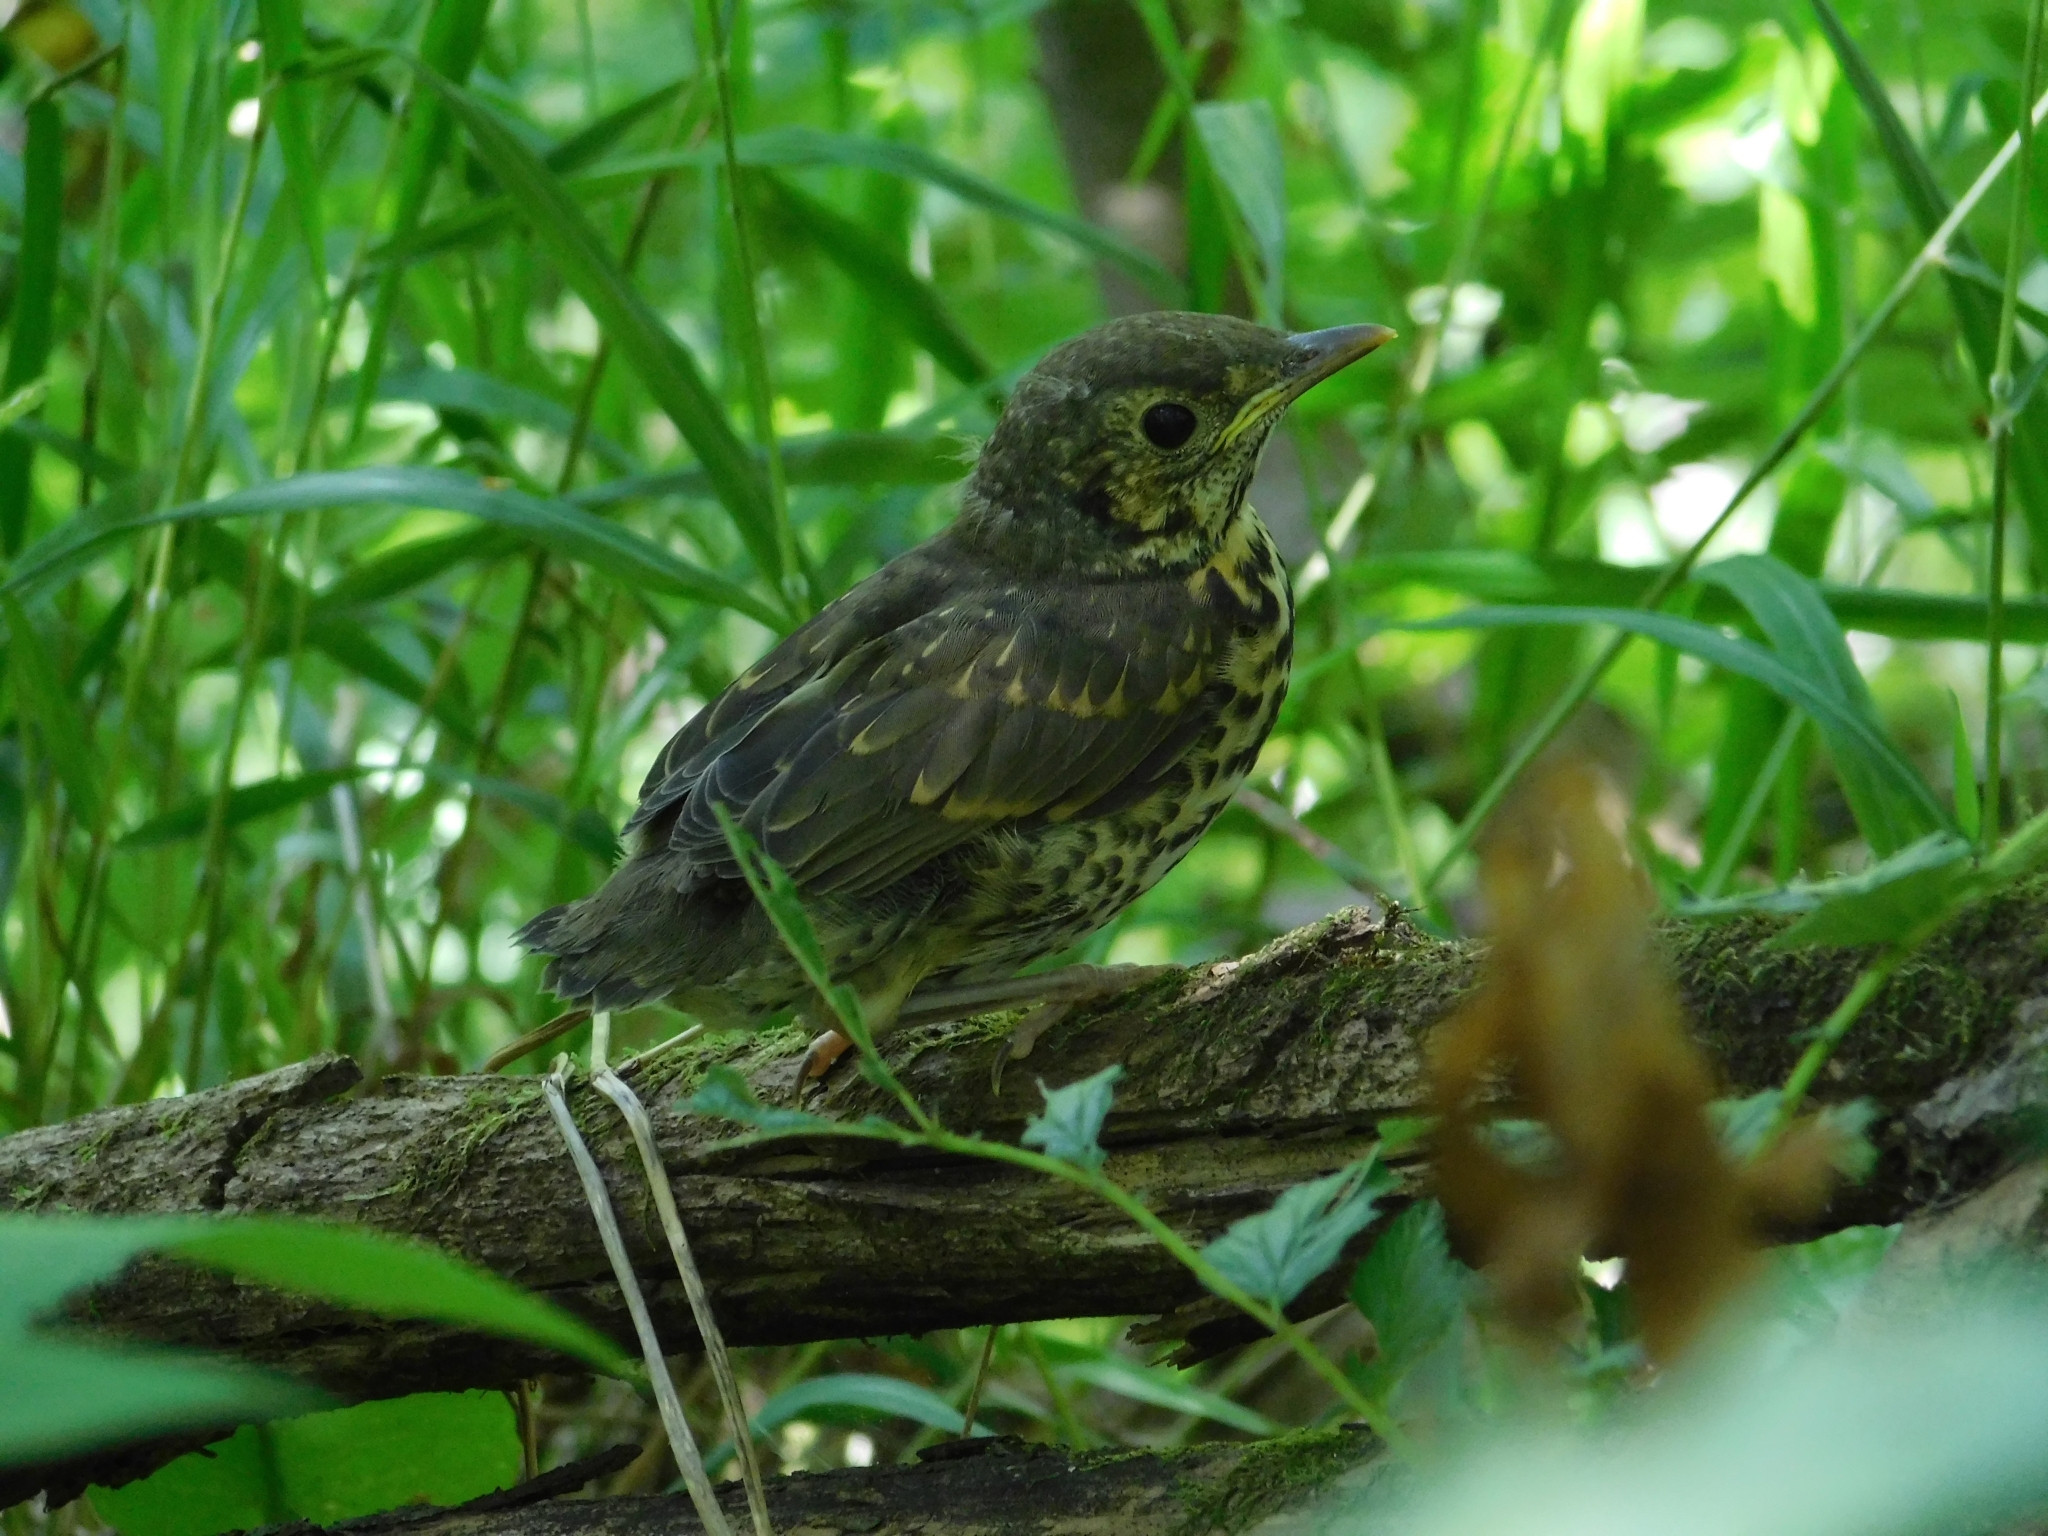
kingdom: Animalia
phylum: Chordata
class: Aves
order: Passeriformes
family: Turdidae
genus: Turdus
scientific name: Turdus philomelos
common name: Song thrush
